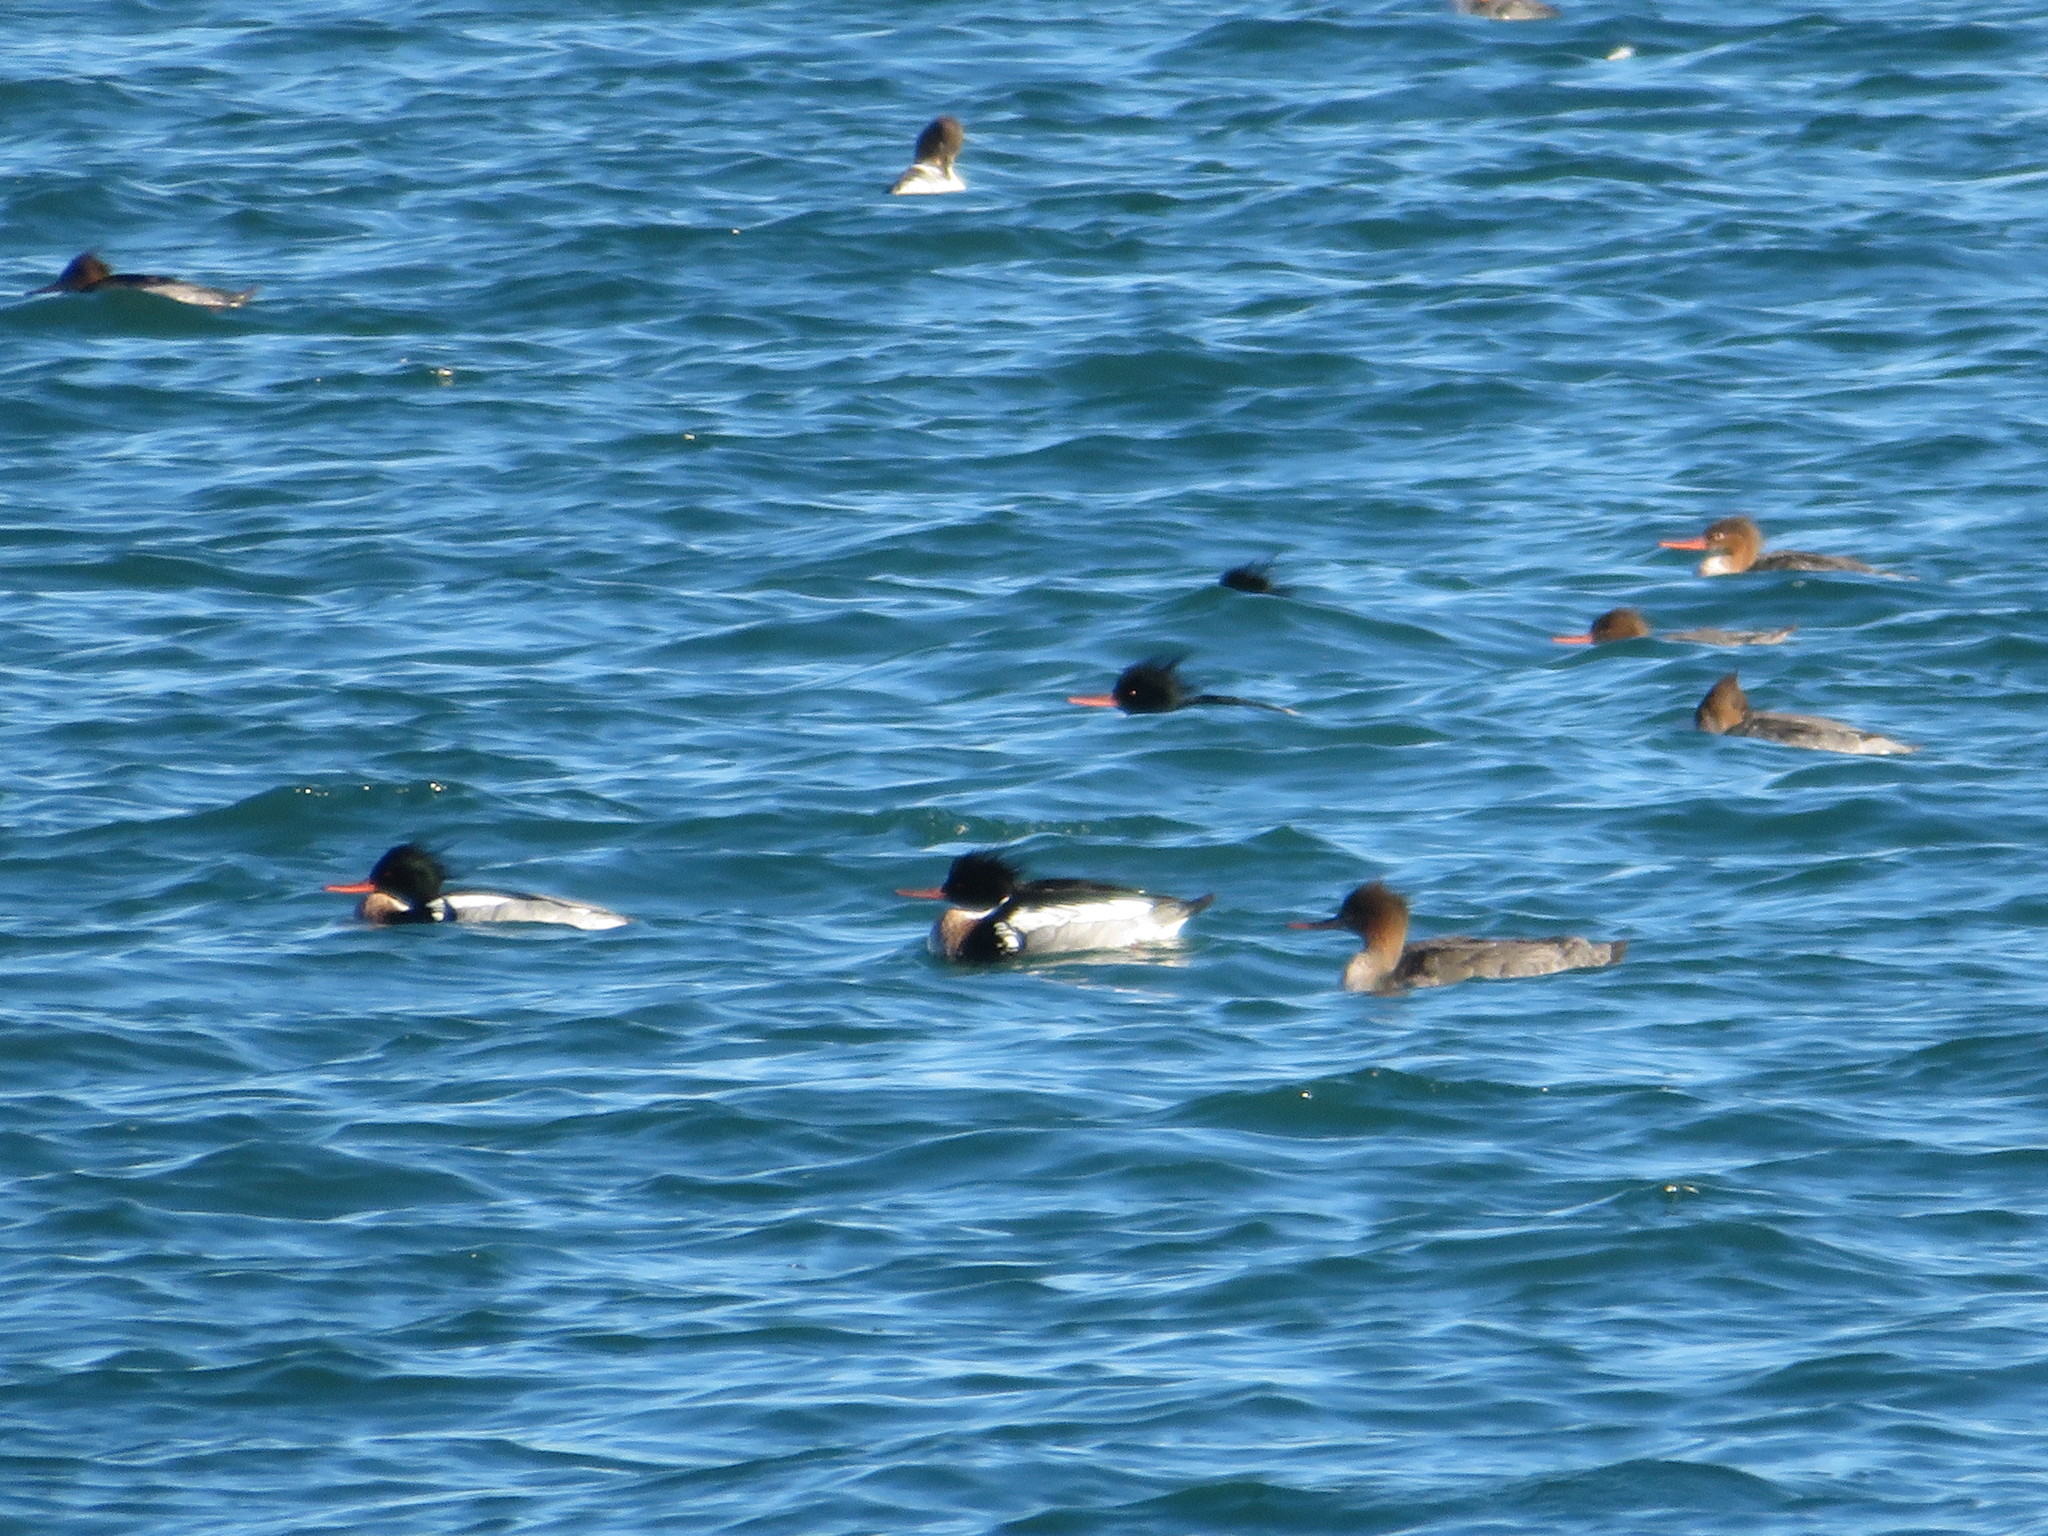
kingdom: Animalia
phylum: Chordata
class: Aves
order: Anseriformes
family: Anatidae
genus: Mergus
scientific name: Mergus serrator
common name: Red-breasted merganser
